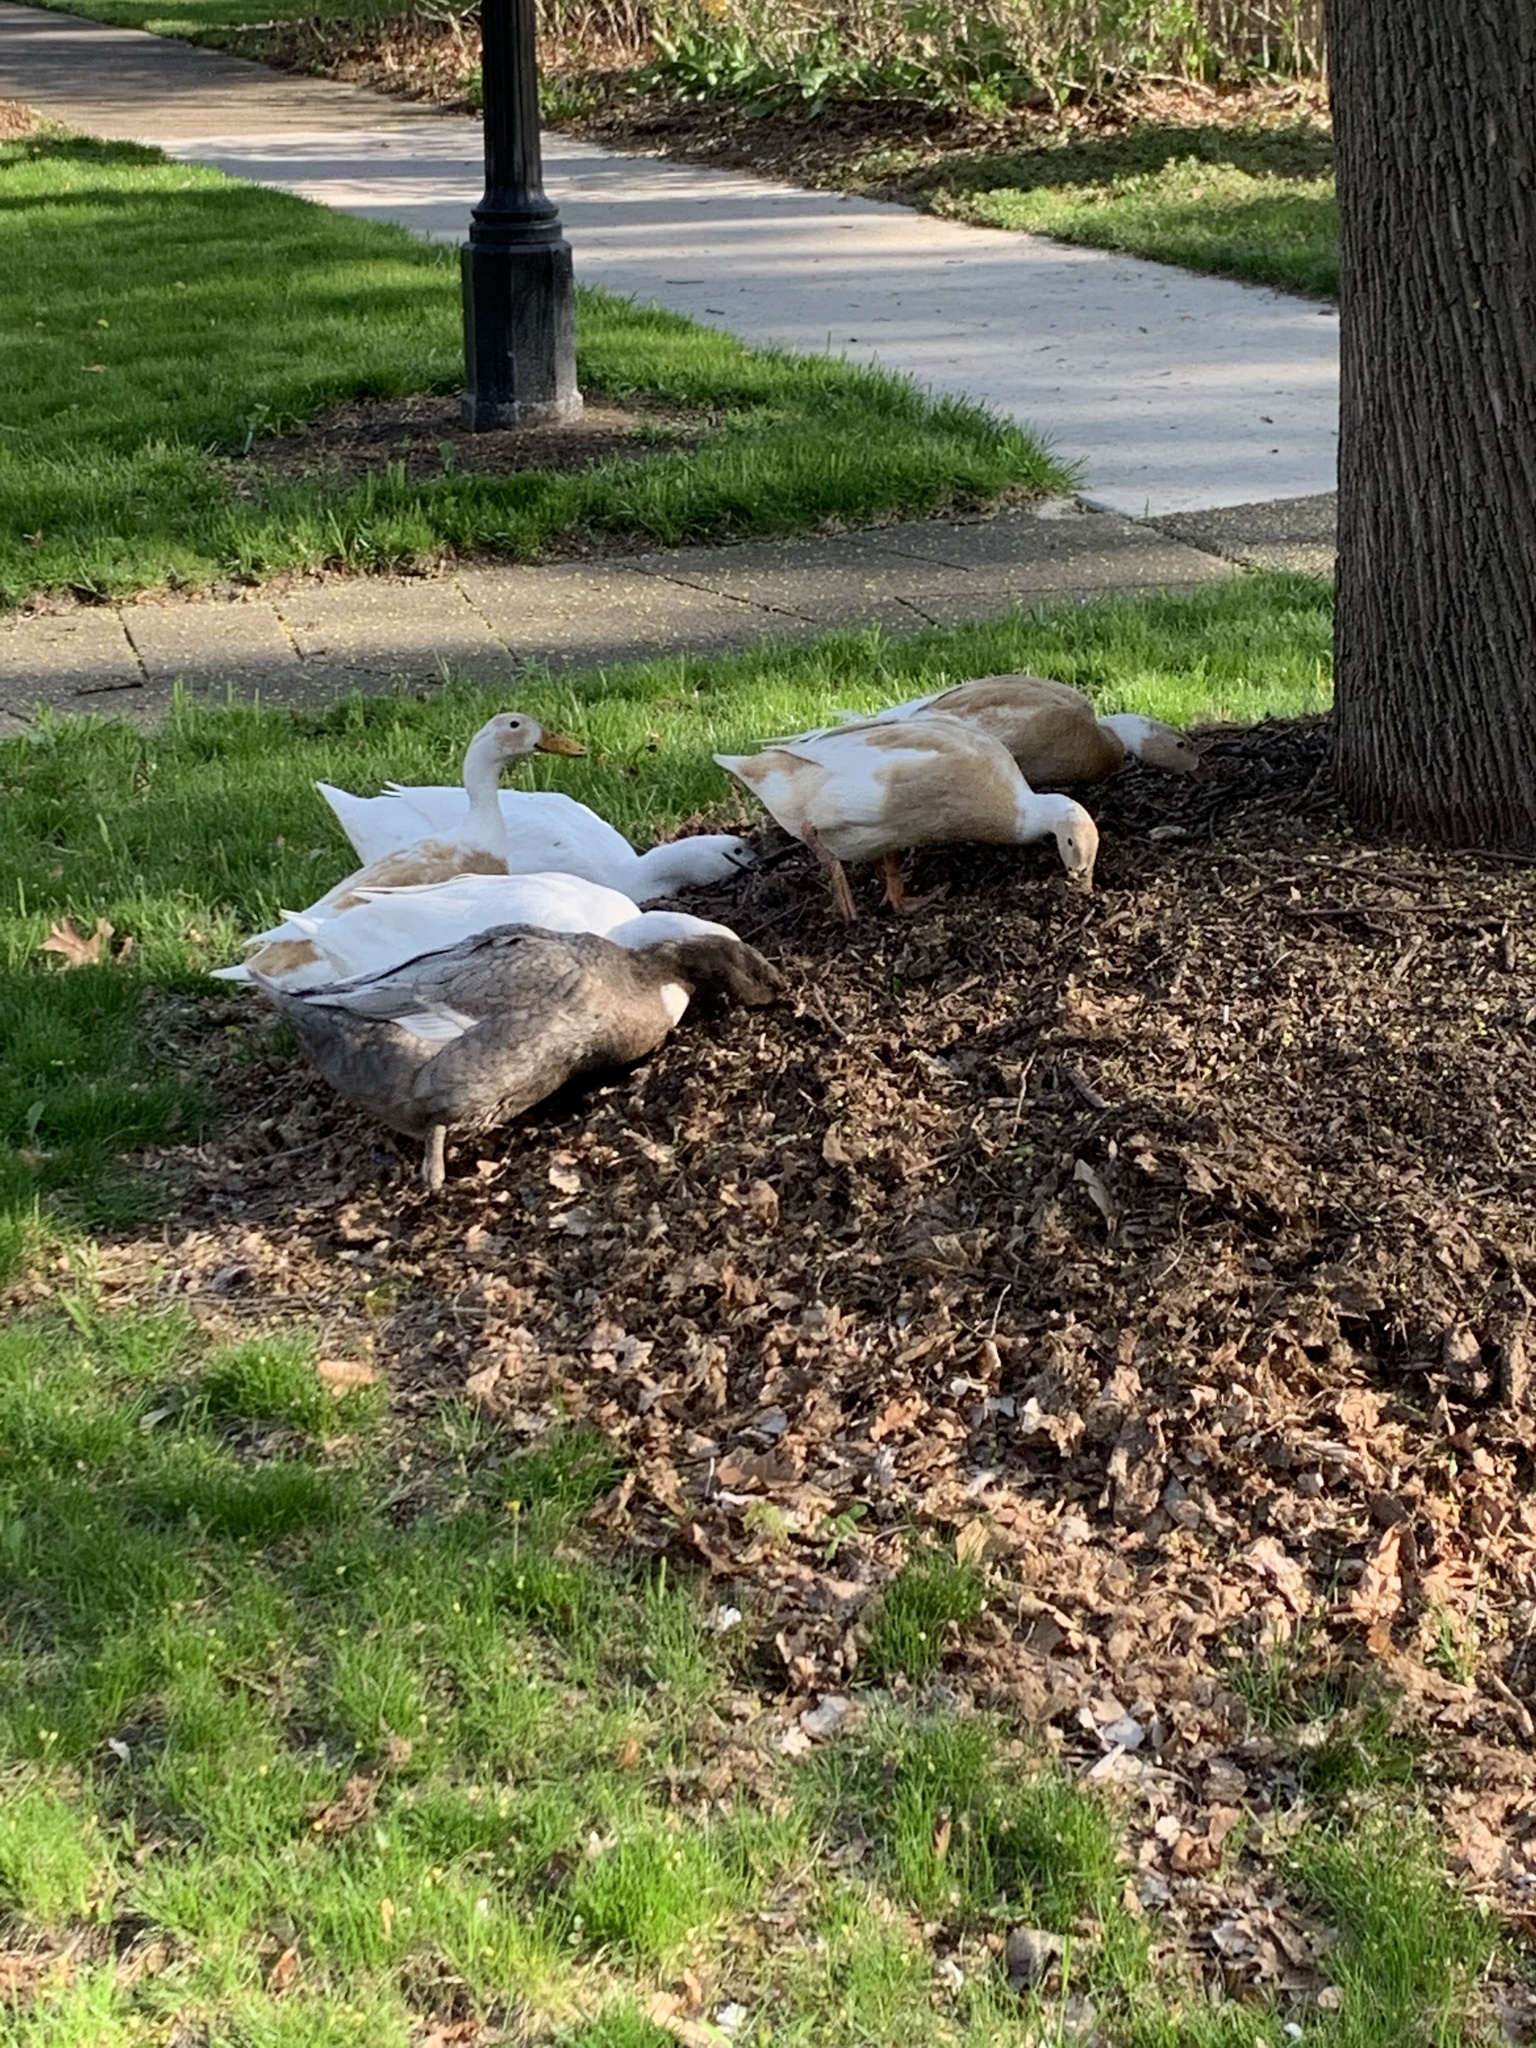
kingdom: Animalia
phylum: Chordata
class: Aves
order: Anseriformes
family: Anatidae
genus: Anas
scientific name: Anas platyrhynchos
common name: Mallard
